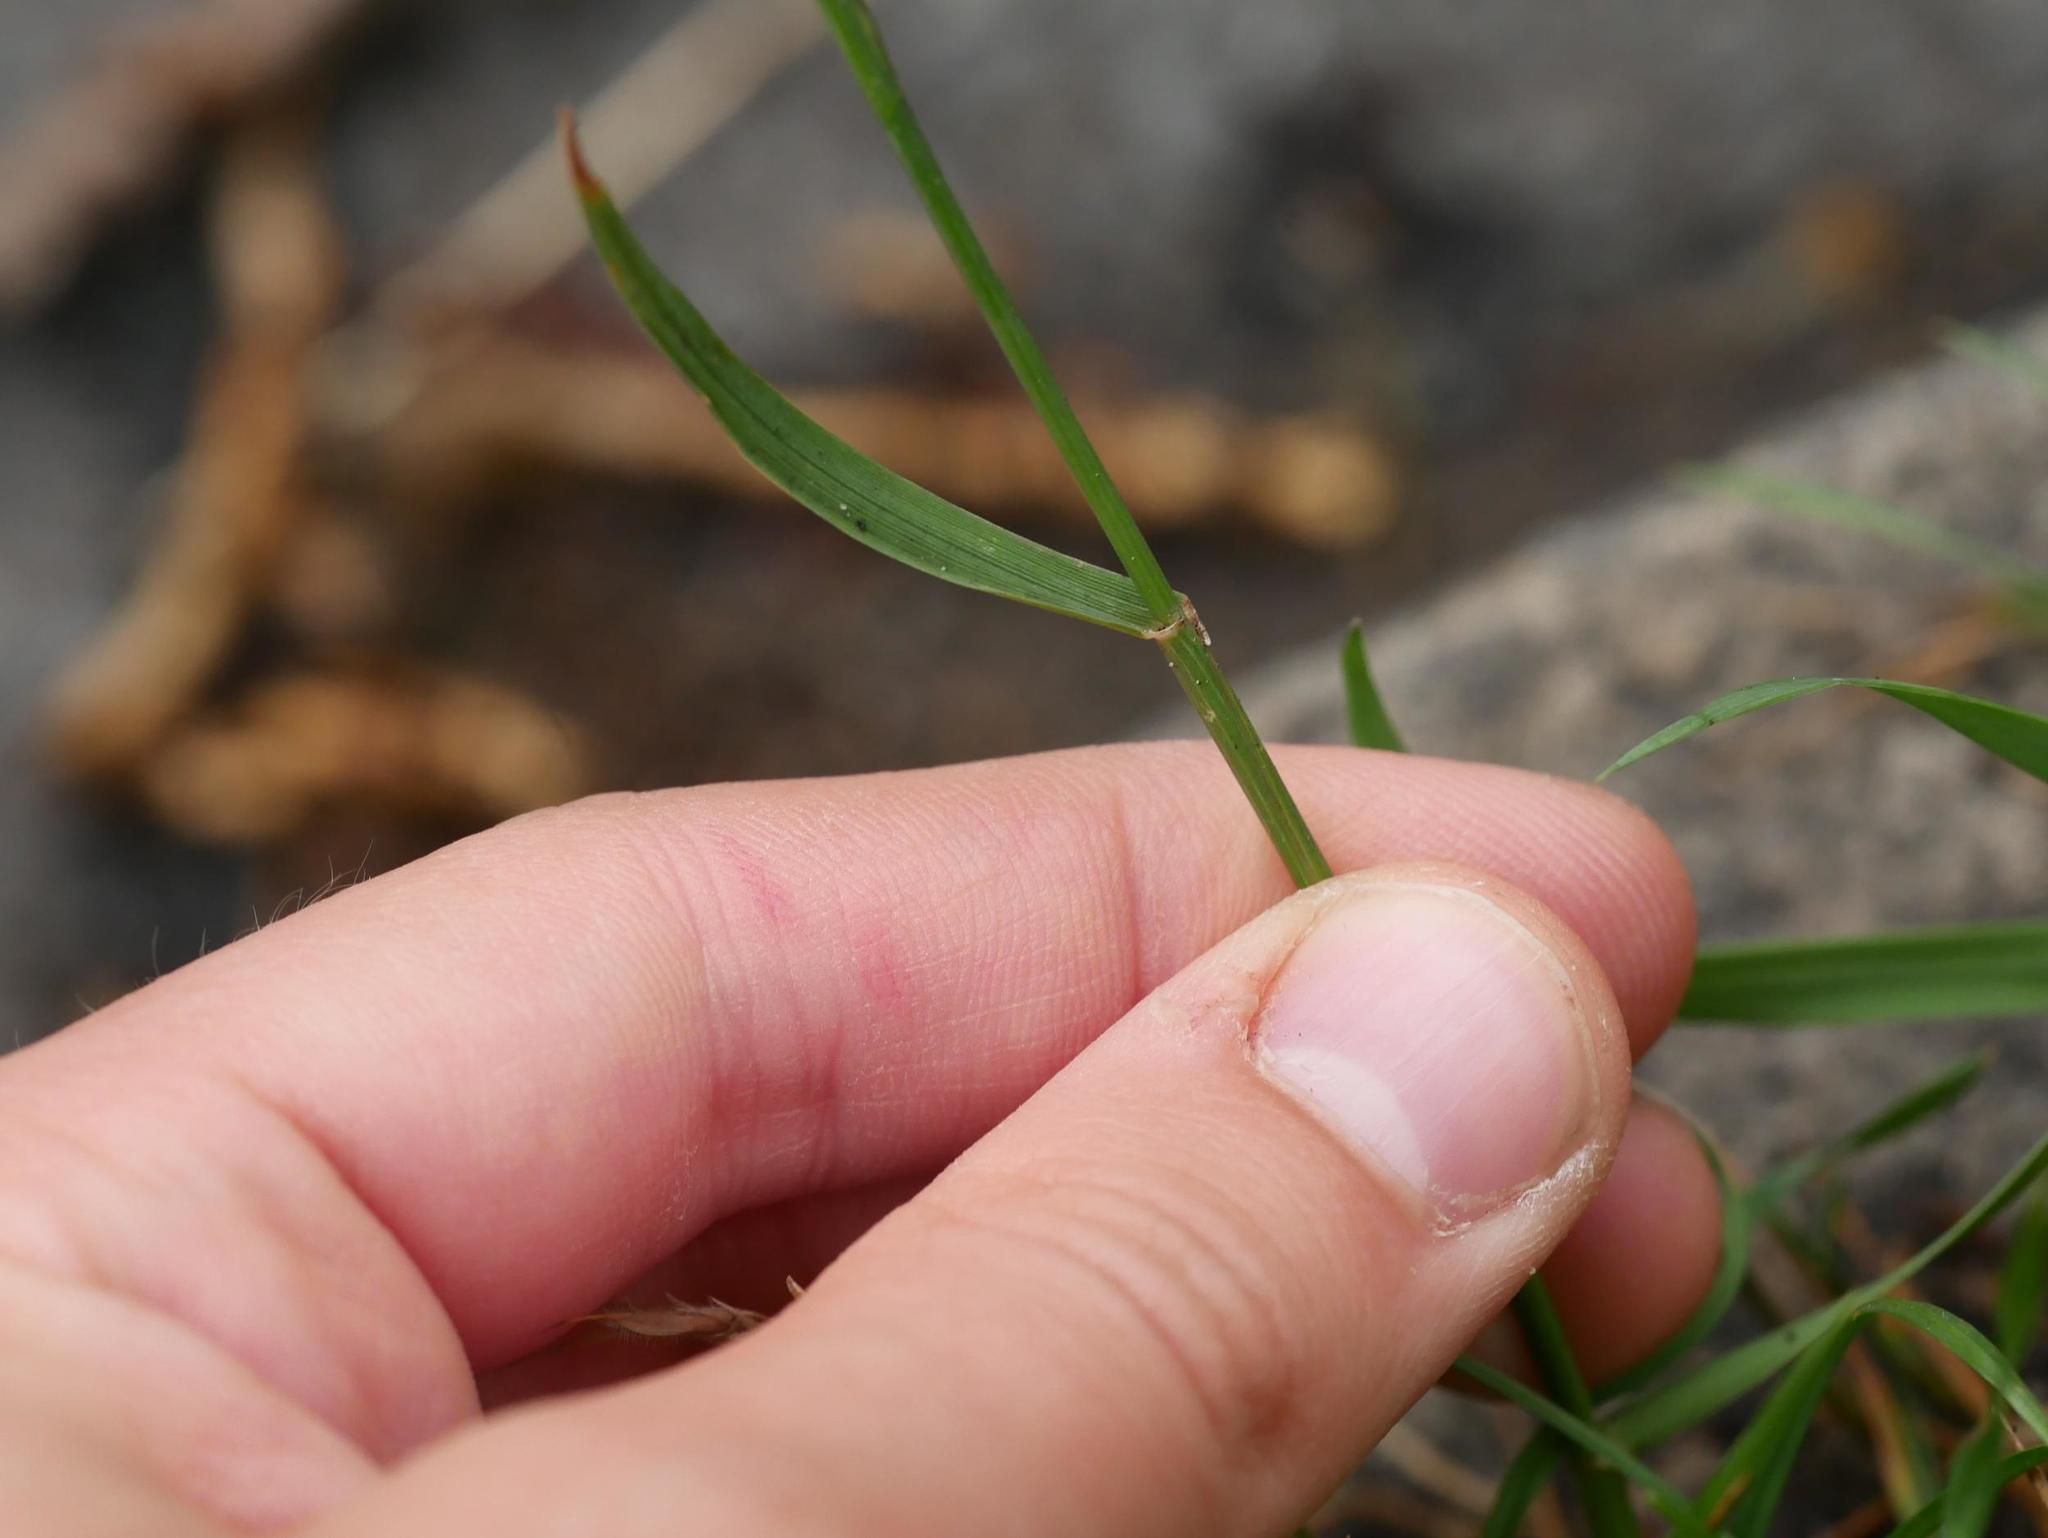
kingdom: Plantae
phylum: Tracheophyta
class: Liliopsida
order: Poales
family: Poaceae
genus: Lolium
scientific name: Lolium perenne
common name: Perennial ryegrass
